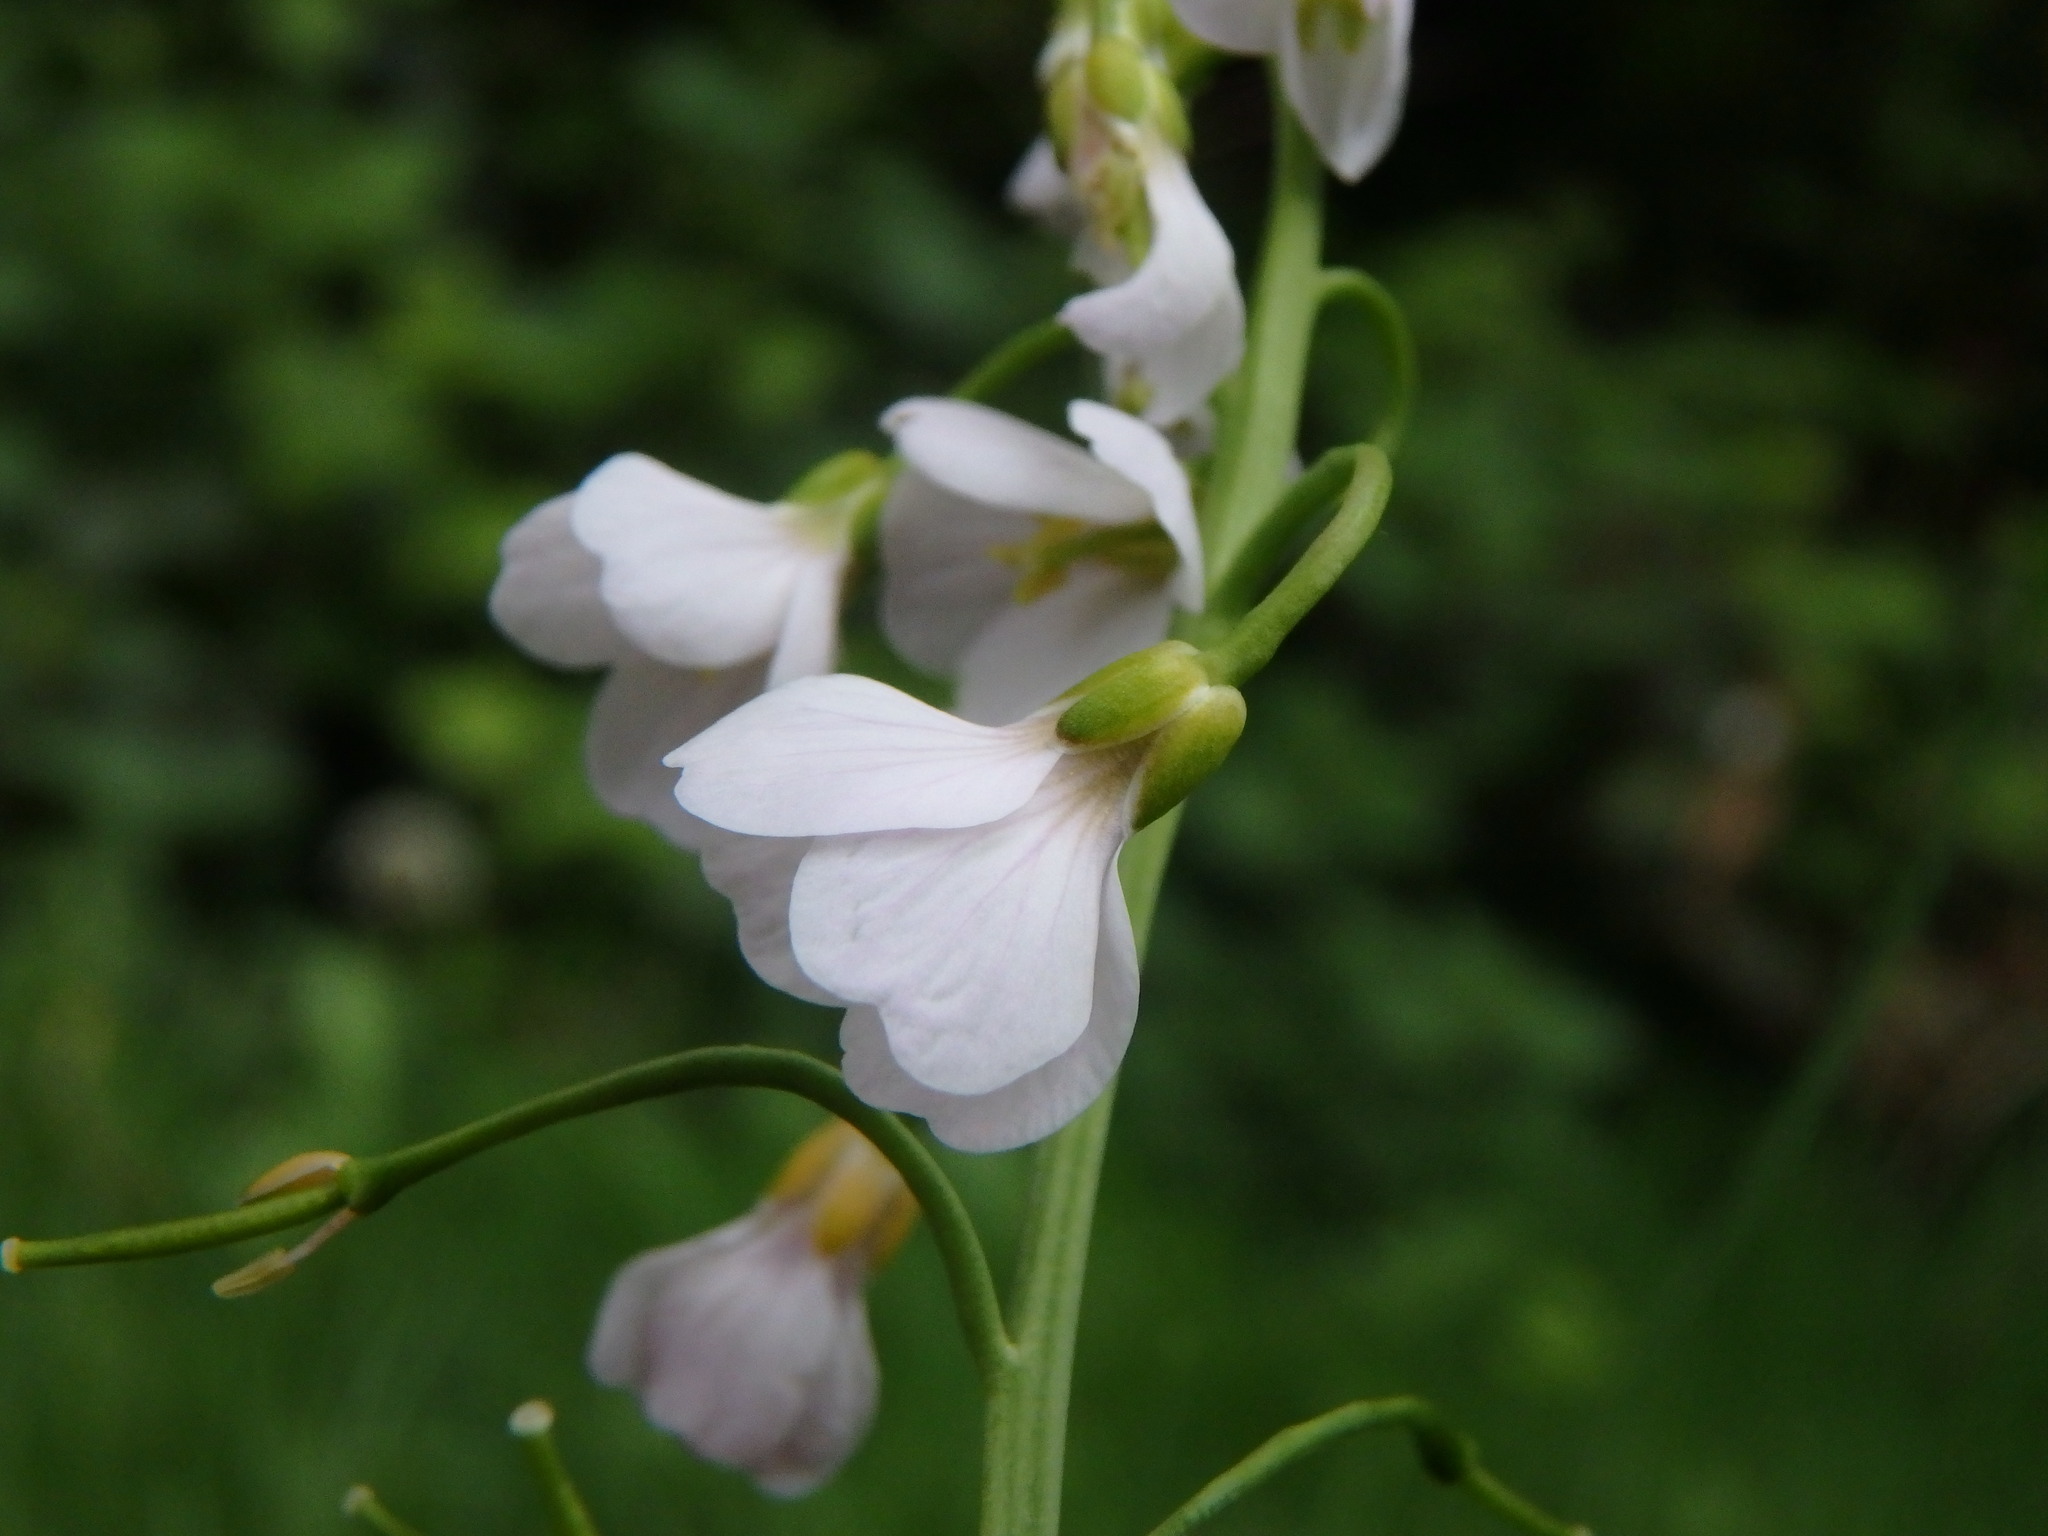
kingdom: Plantae
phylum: Tracheophyta
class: Magnoliopsida
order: Brassicales
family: Brassicaceae
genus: Cardamine
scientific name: Cardamine pratensis
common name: Cuckoo flower
